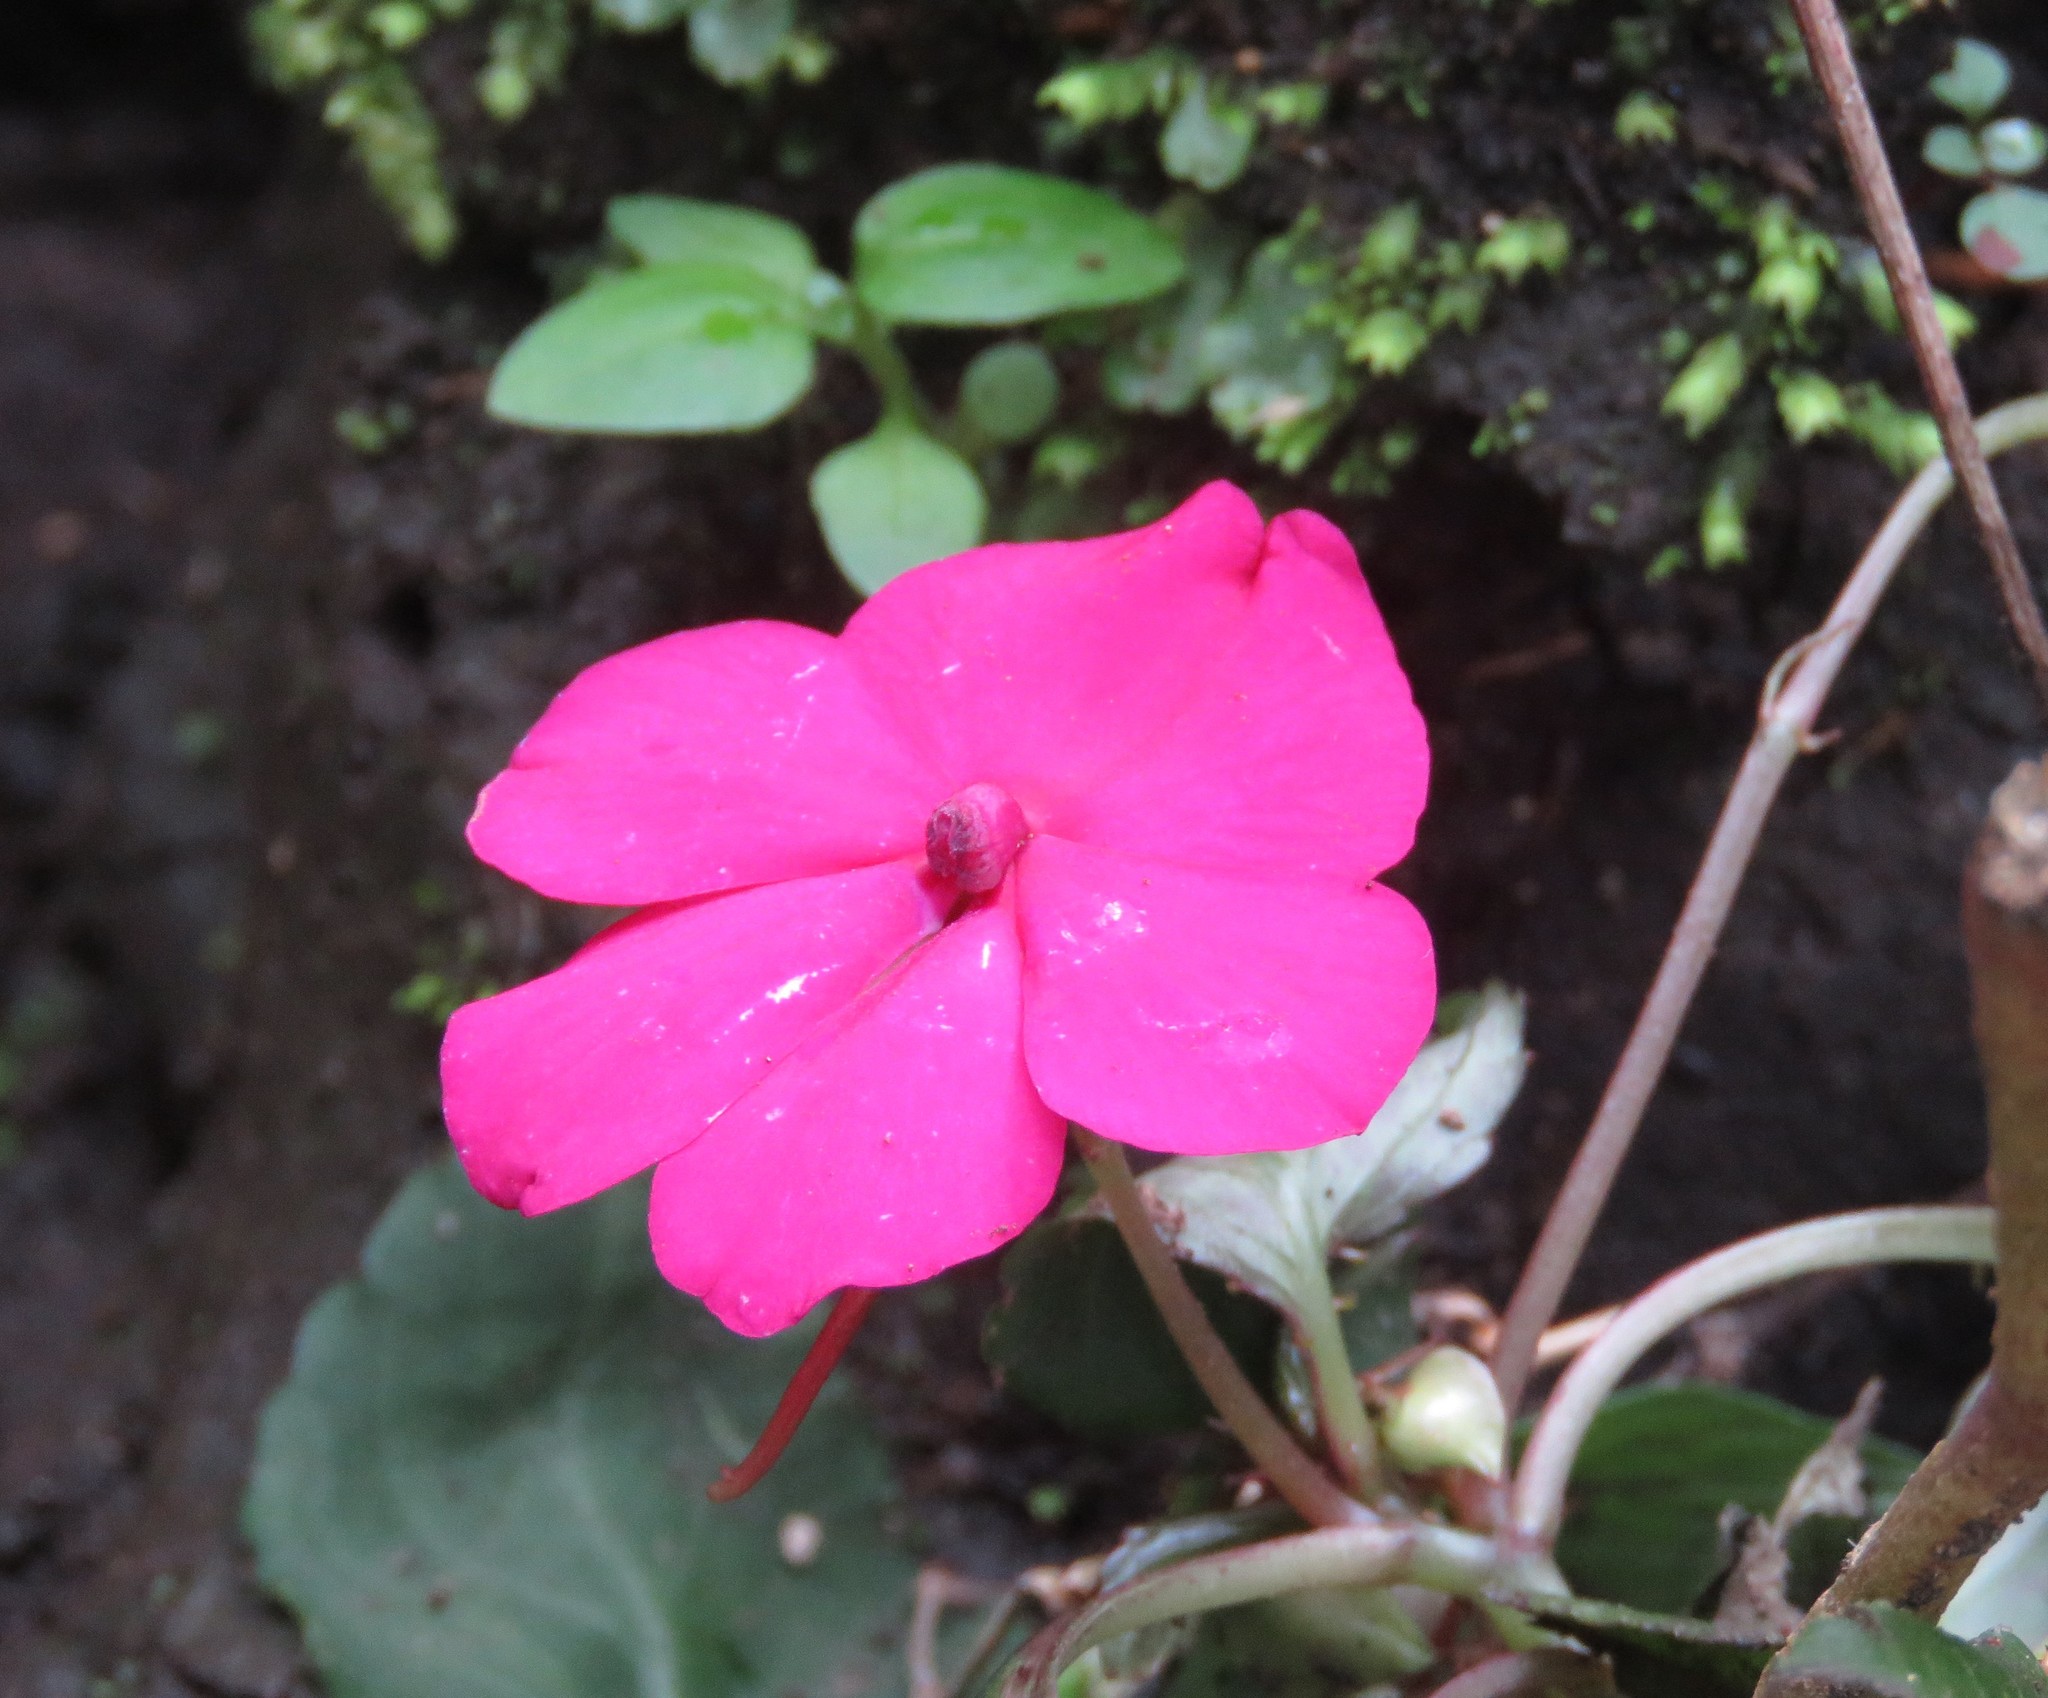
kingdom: Plantae
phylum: Tracheophyta
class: Magnoliopsida
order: Ericales
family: Balsaminaceae
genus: Impatiens
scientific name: Impatiens walleriana
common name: Buzzy lizzy
